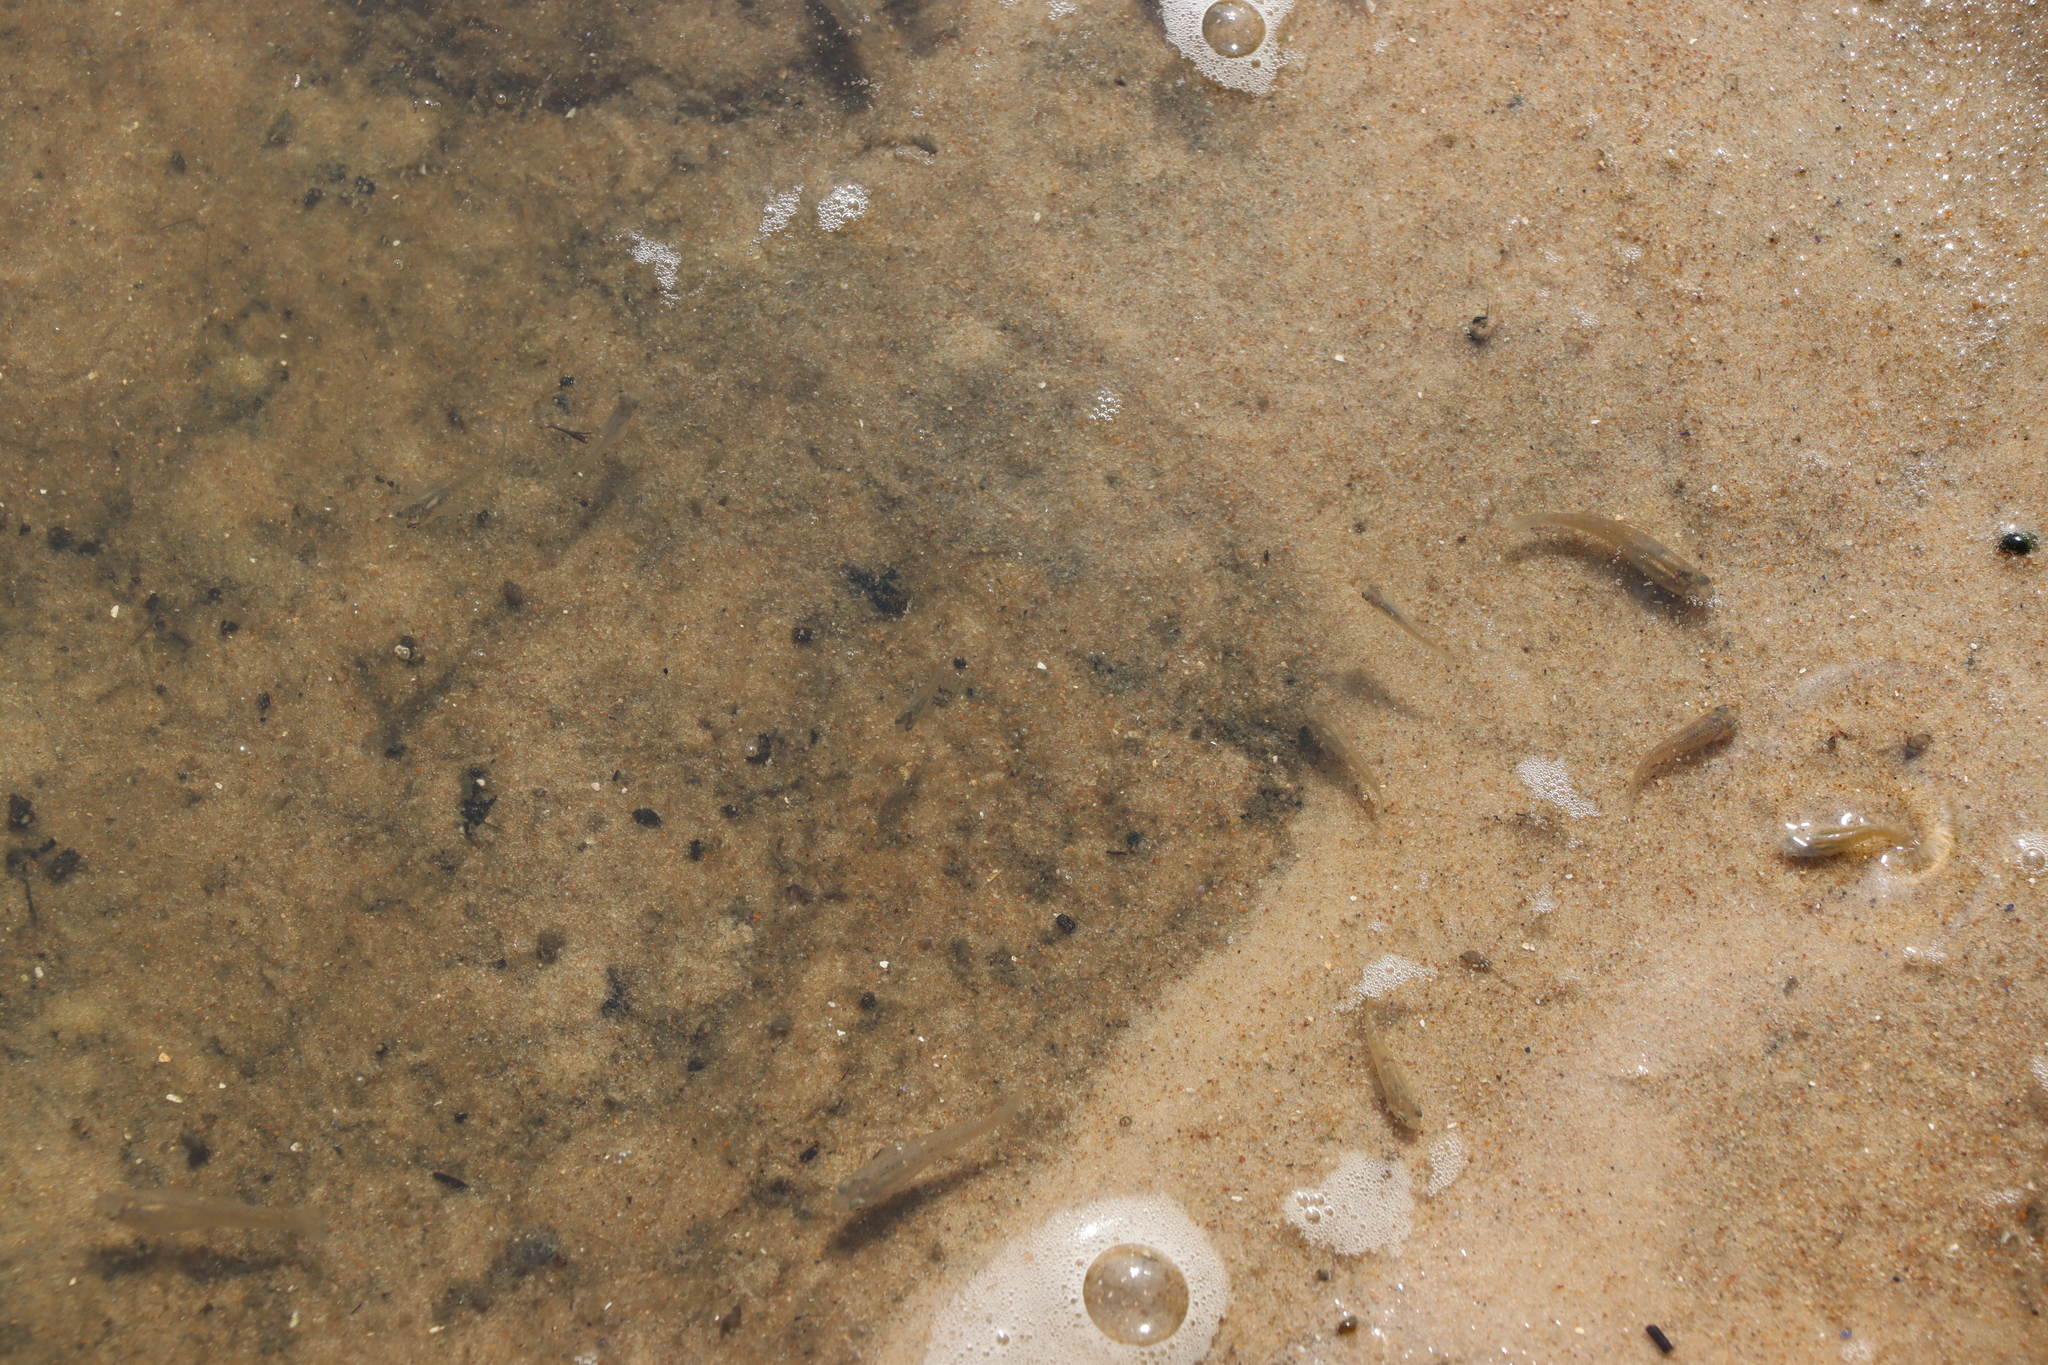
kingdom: Animalia
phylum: Chordata
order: Cyprinodontiformes
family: Anablepidae
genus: Jenynsia
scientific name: Jenynsia lineata
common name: Onesided livebearer
